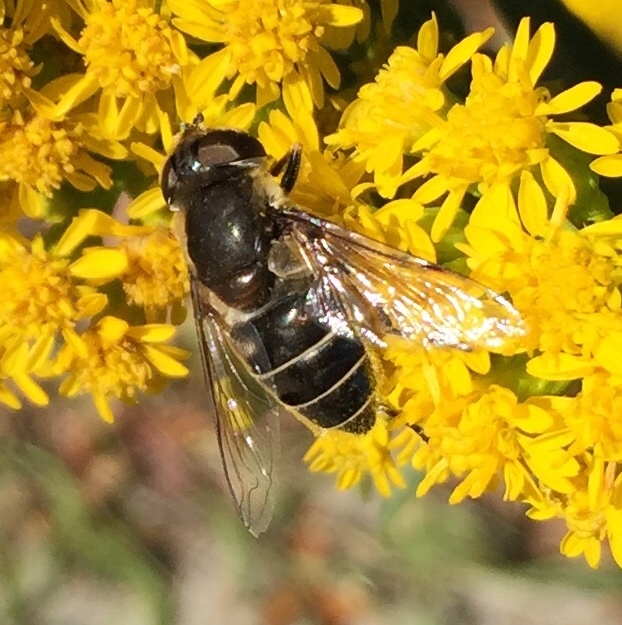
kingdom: Animalia
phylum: Arthropoda
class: Insecta
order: Diptera
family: Syrphidae
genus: Eristalis
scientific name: Eristalis dimidiata
